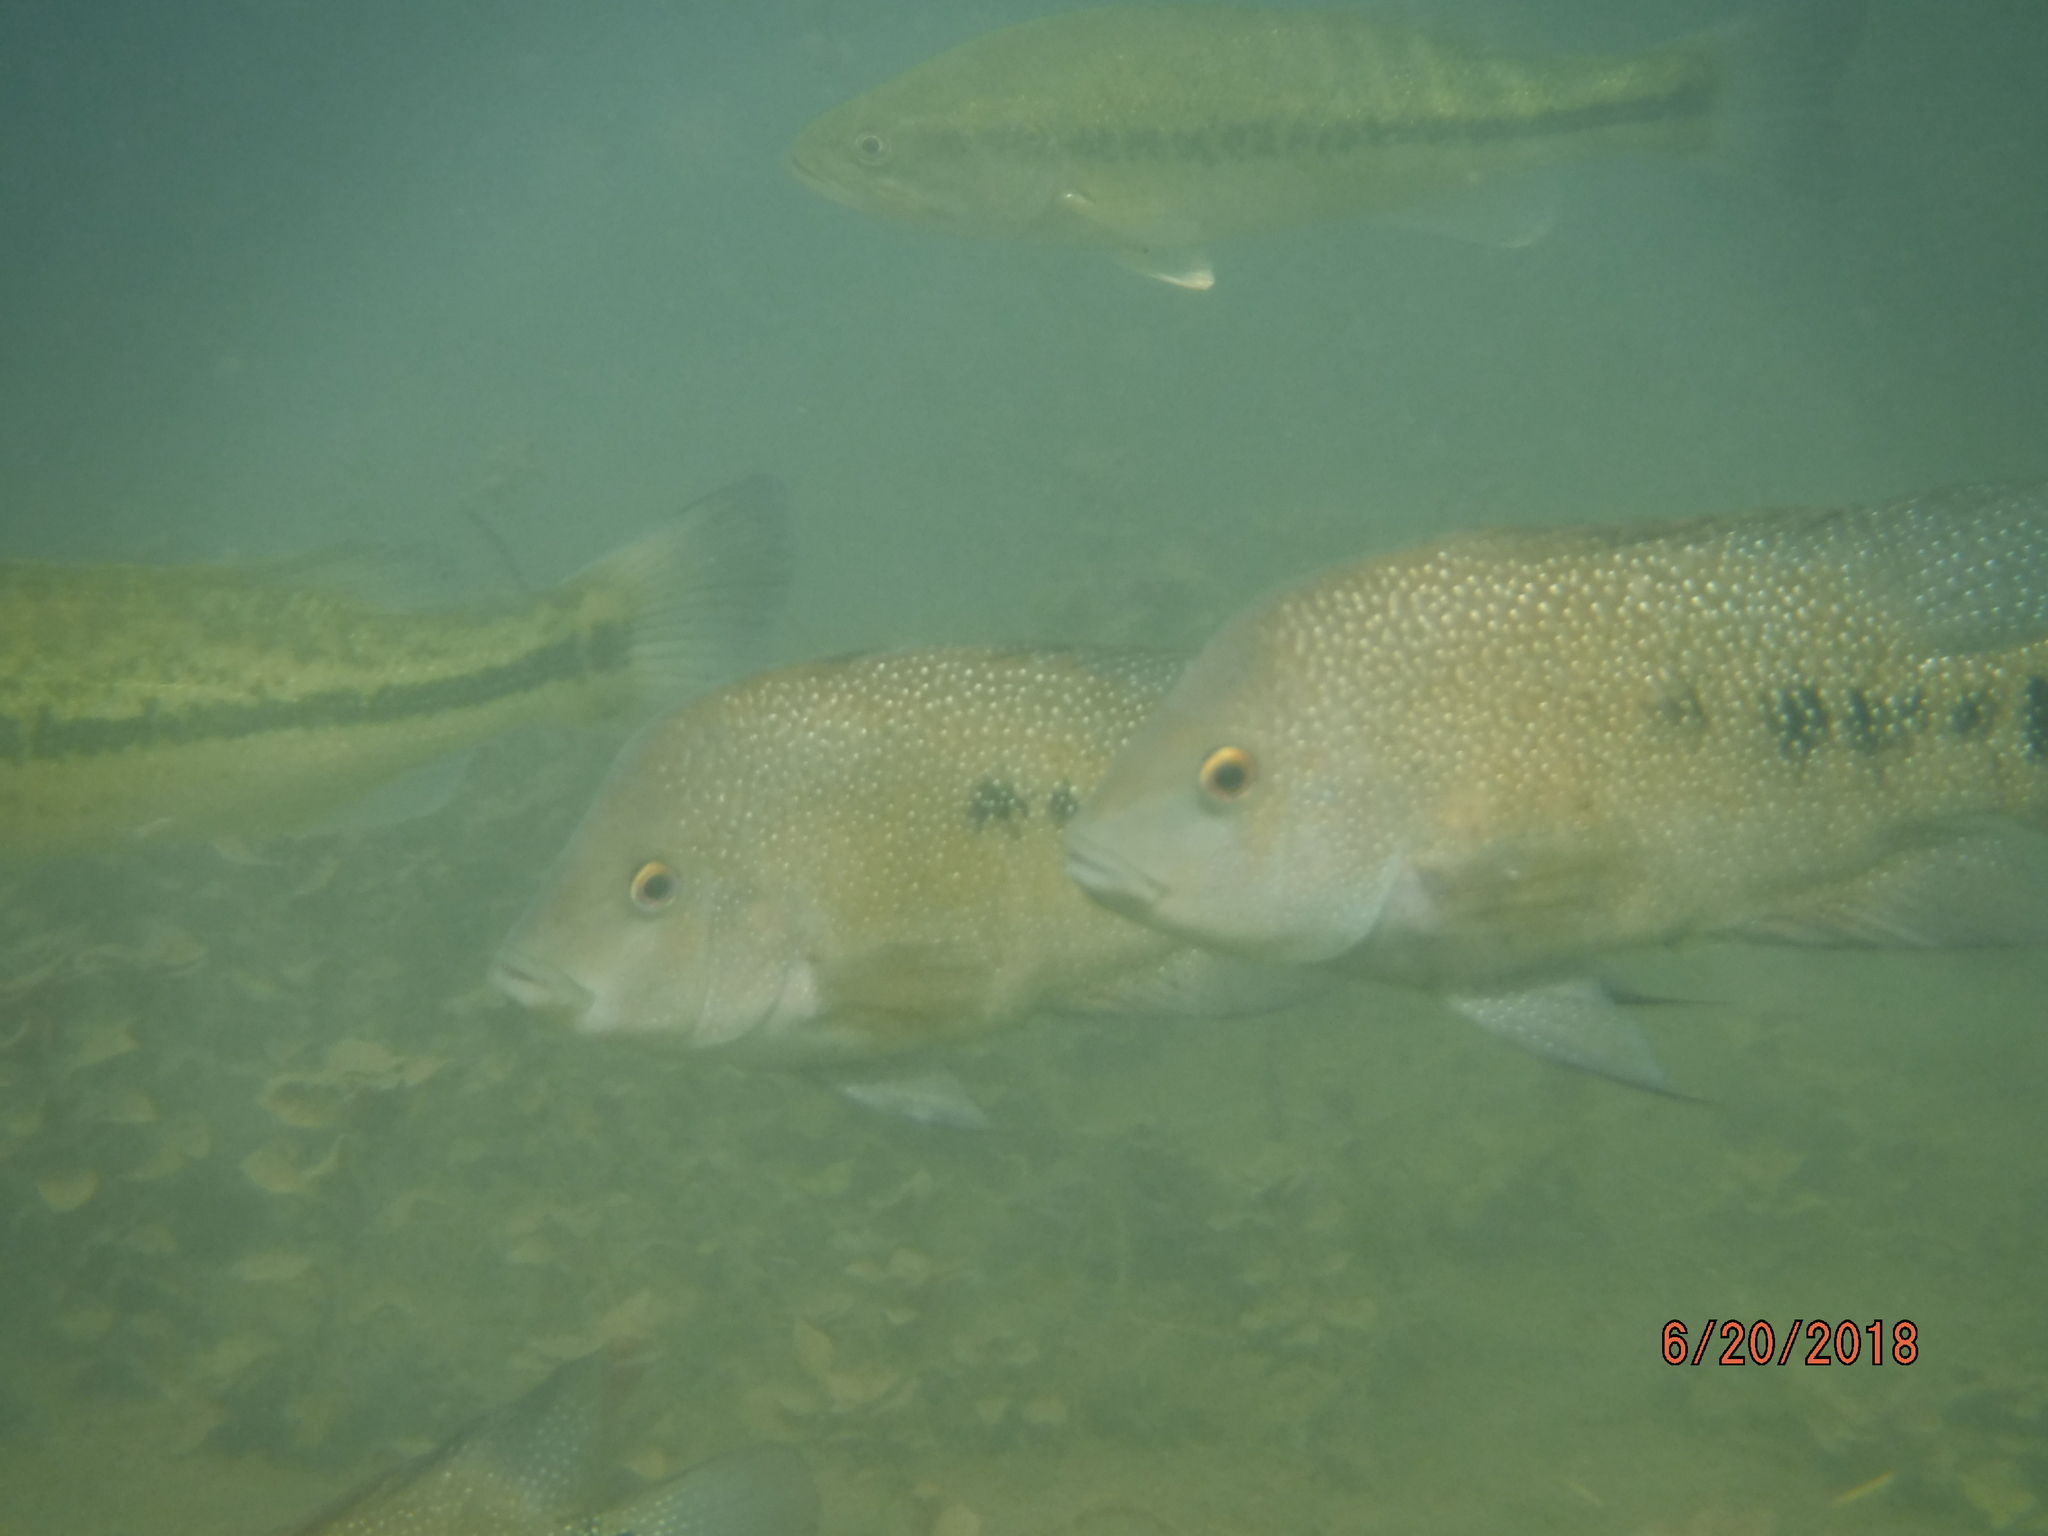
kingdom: Animalia
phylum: Chordata
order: Perciformes
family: Cichlidae
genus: Herichthys
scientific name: Herichthys cyanoguttatus
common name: Rio grande cichlid
